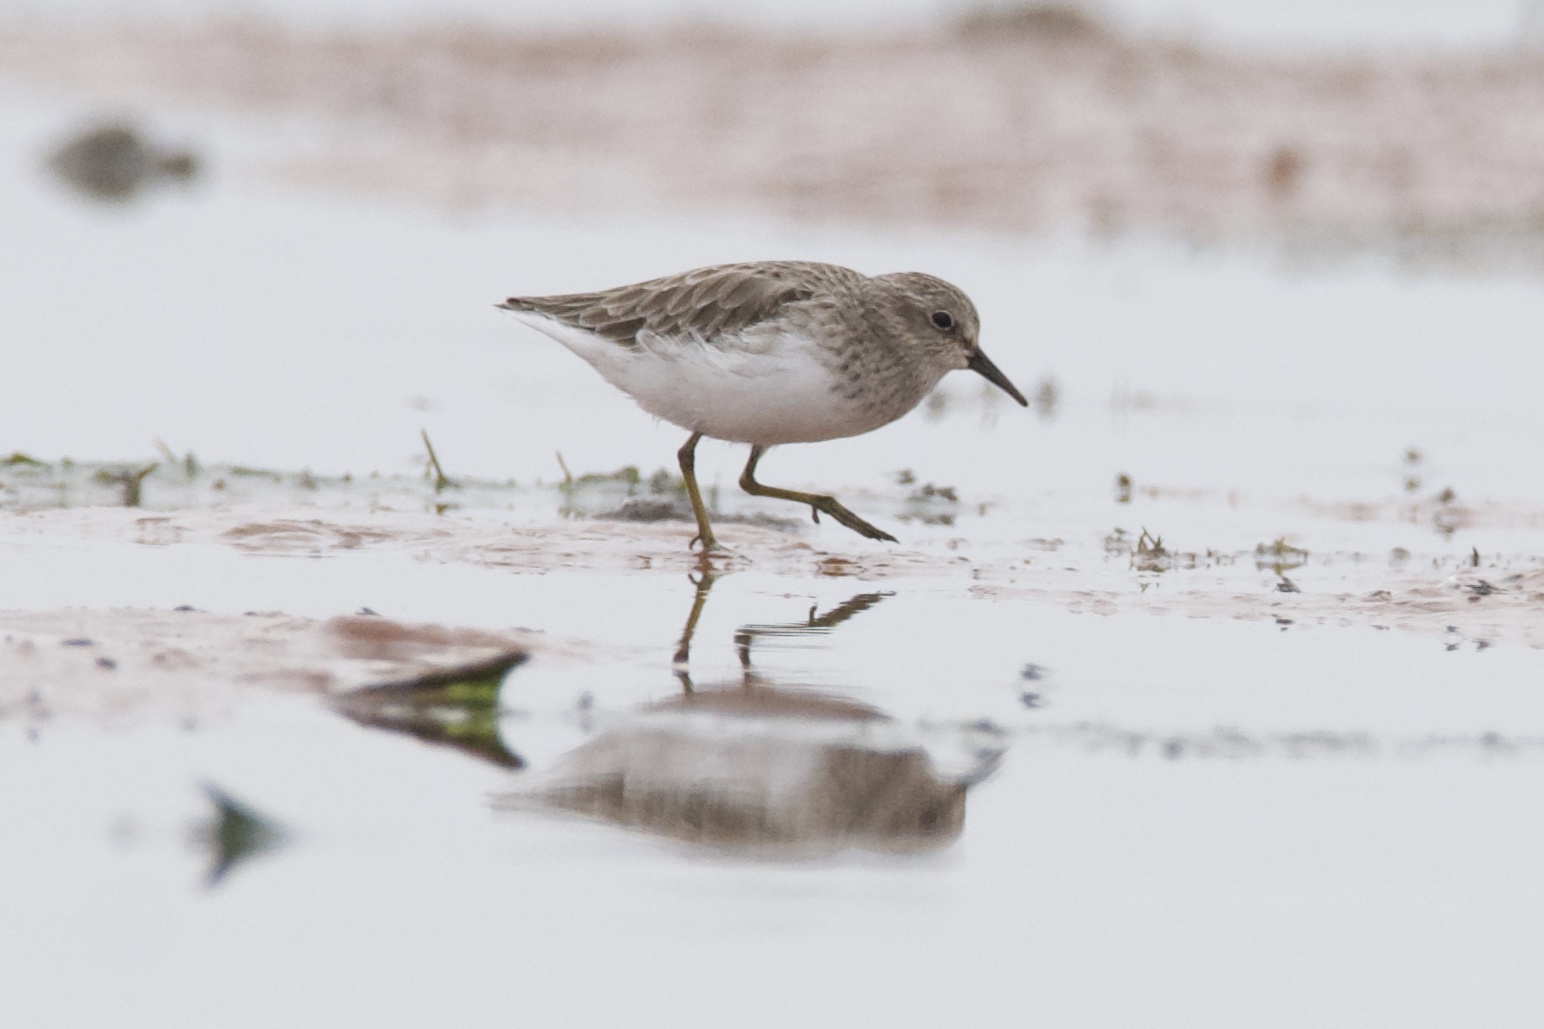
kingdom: Animalia
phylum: Chordata
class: Aves
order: Charadriiformes
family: Scolopacidae
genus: Calidris
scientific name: Calidris minutilla
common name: Least sandpiper
